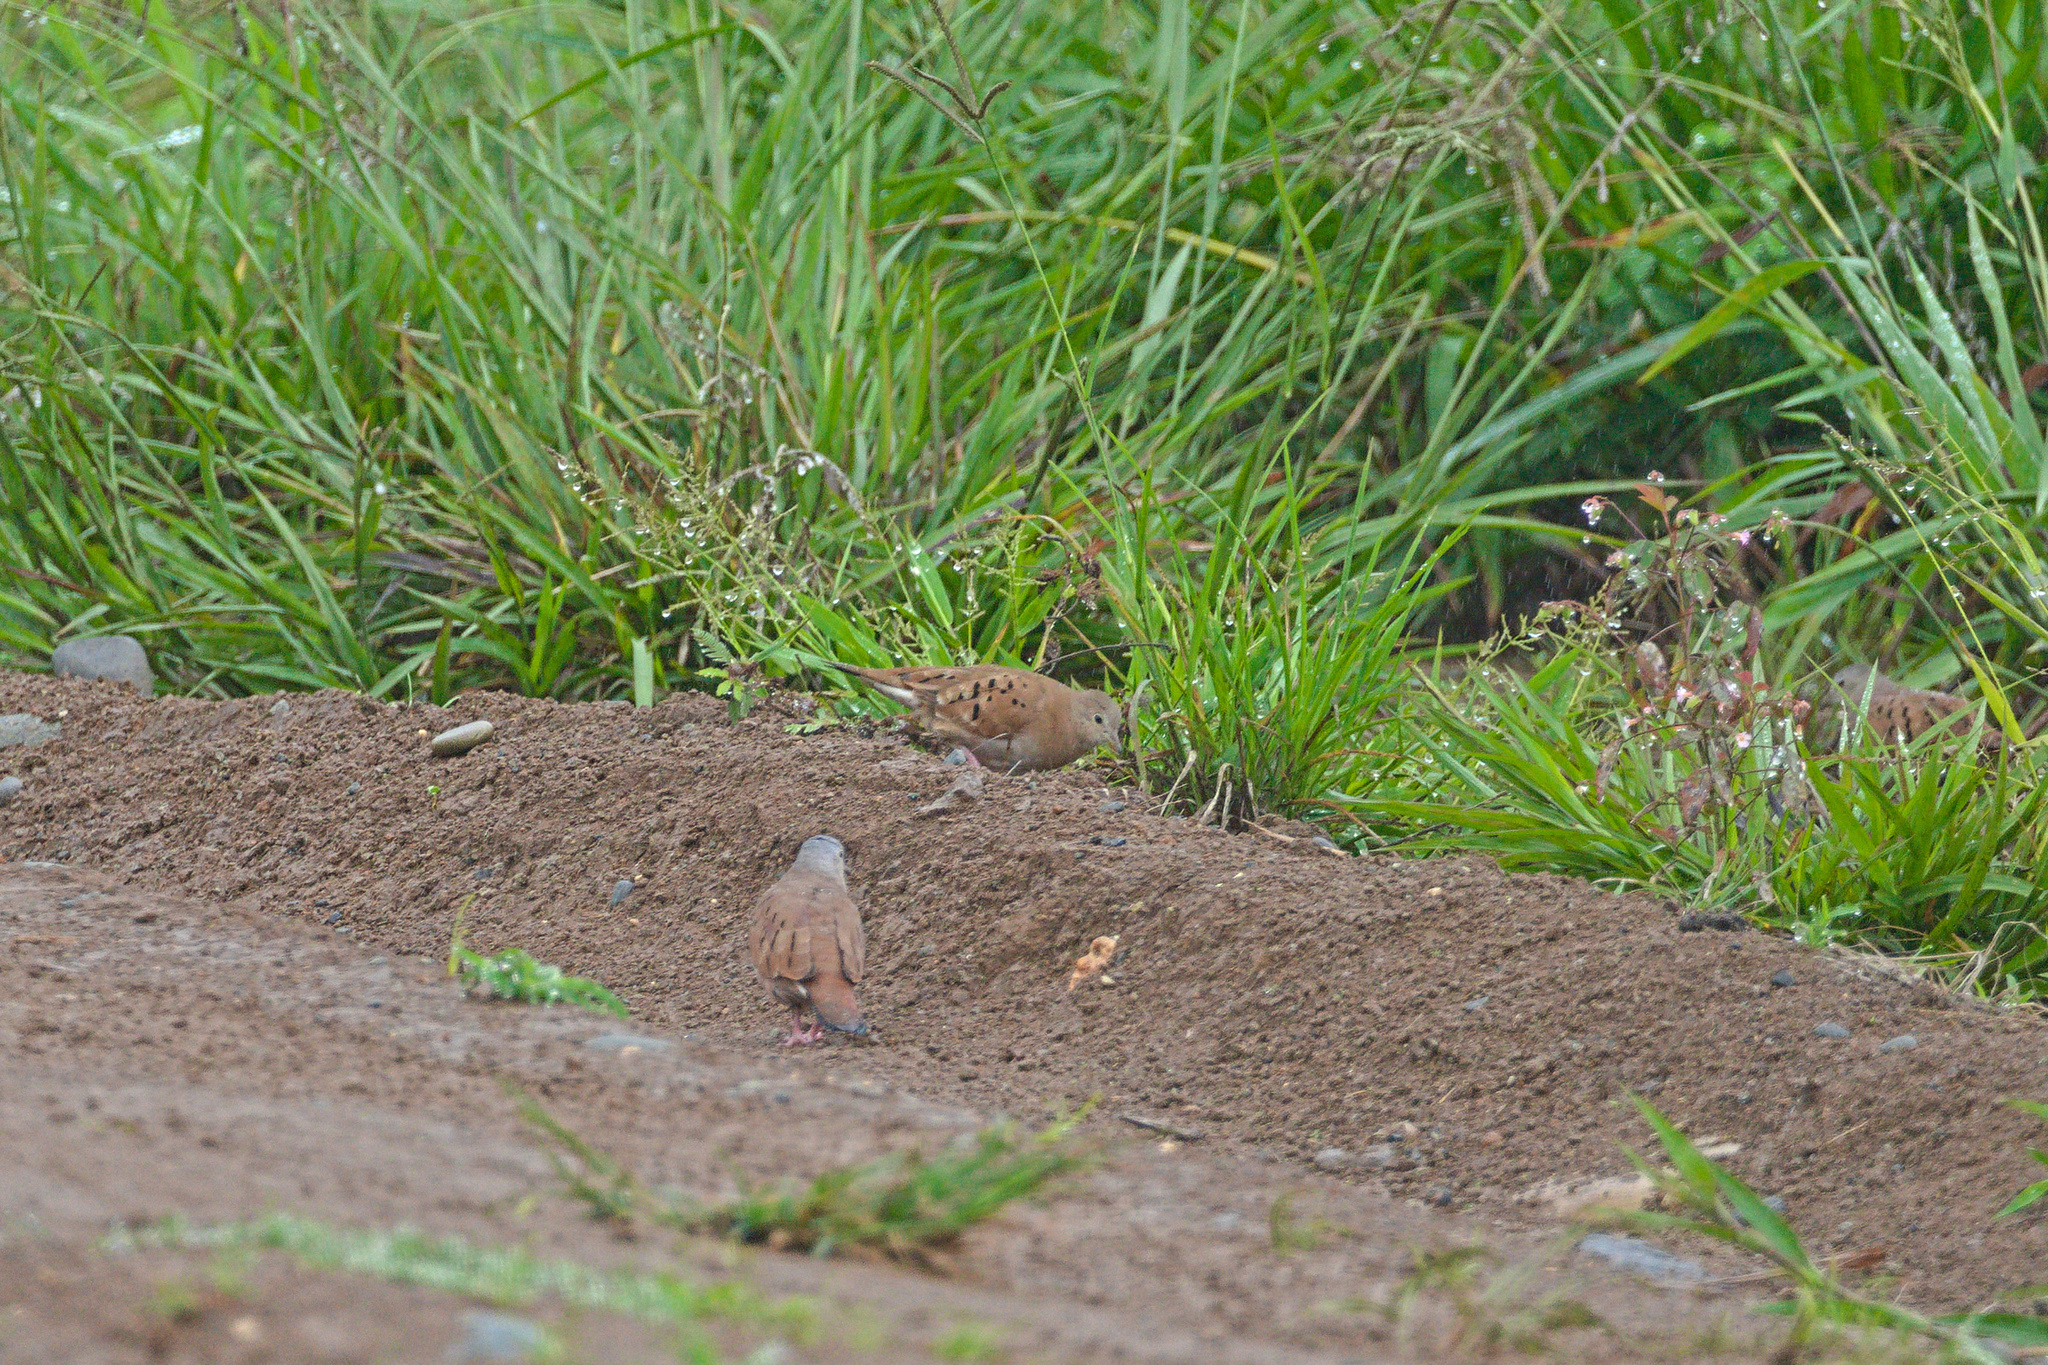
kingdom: Animalia
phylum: Chordata
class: Aves
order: Columbiformes
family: Columbidae
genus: Columbina
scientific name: Columbina talpacoti
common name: Ruddy ground dove
